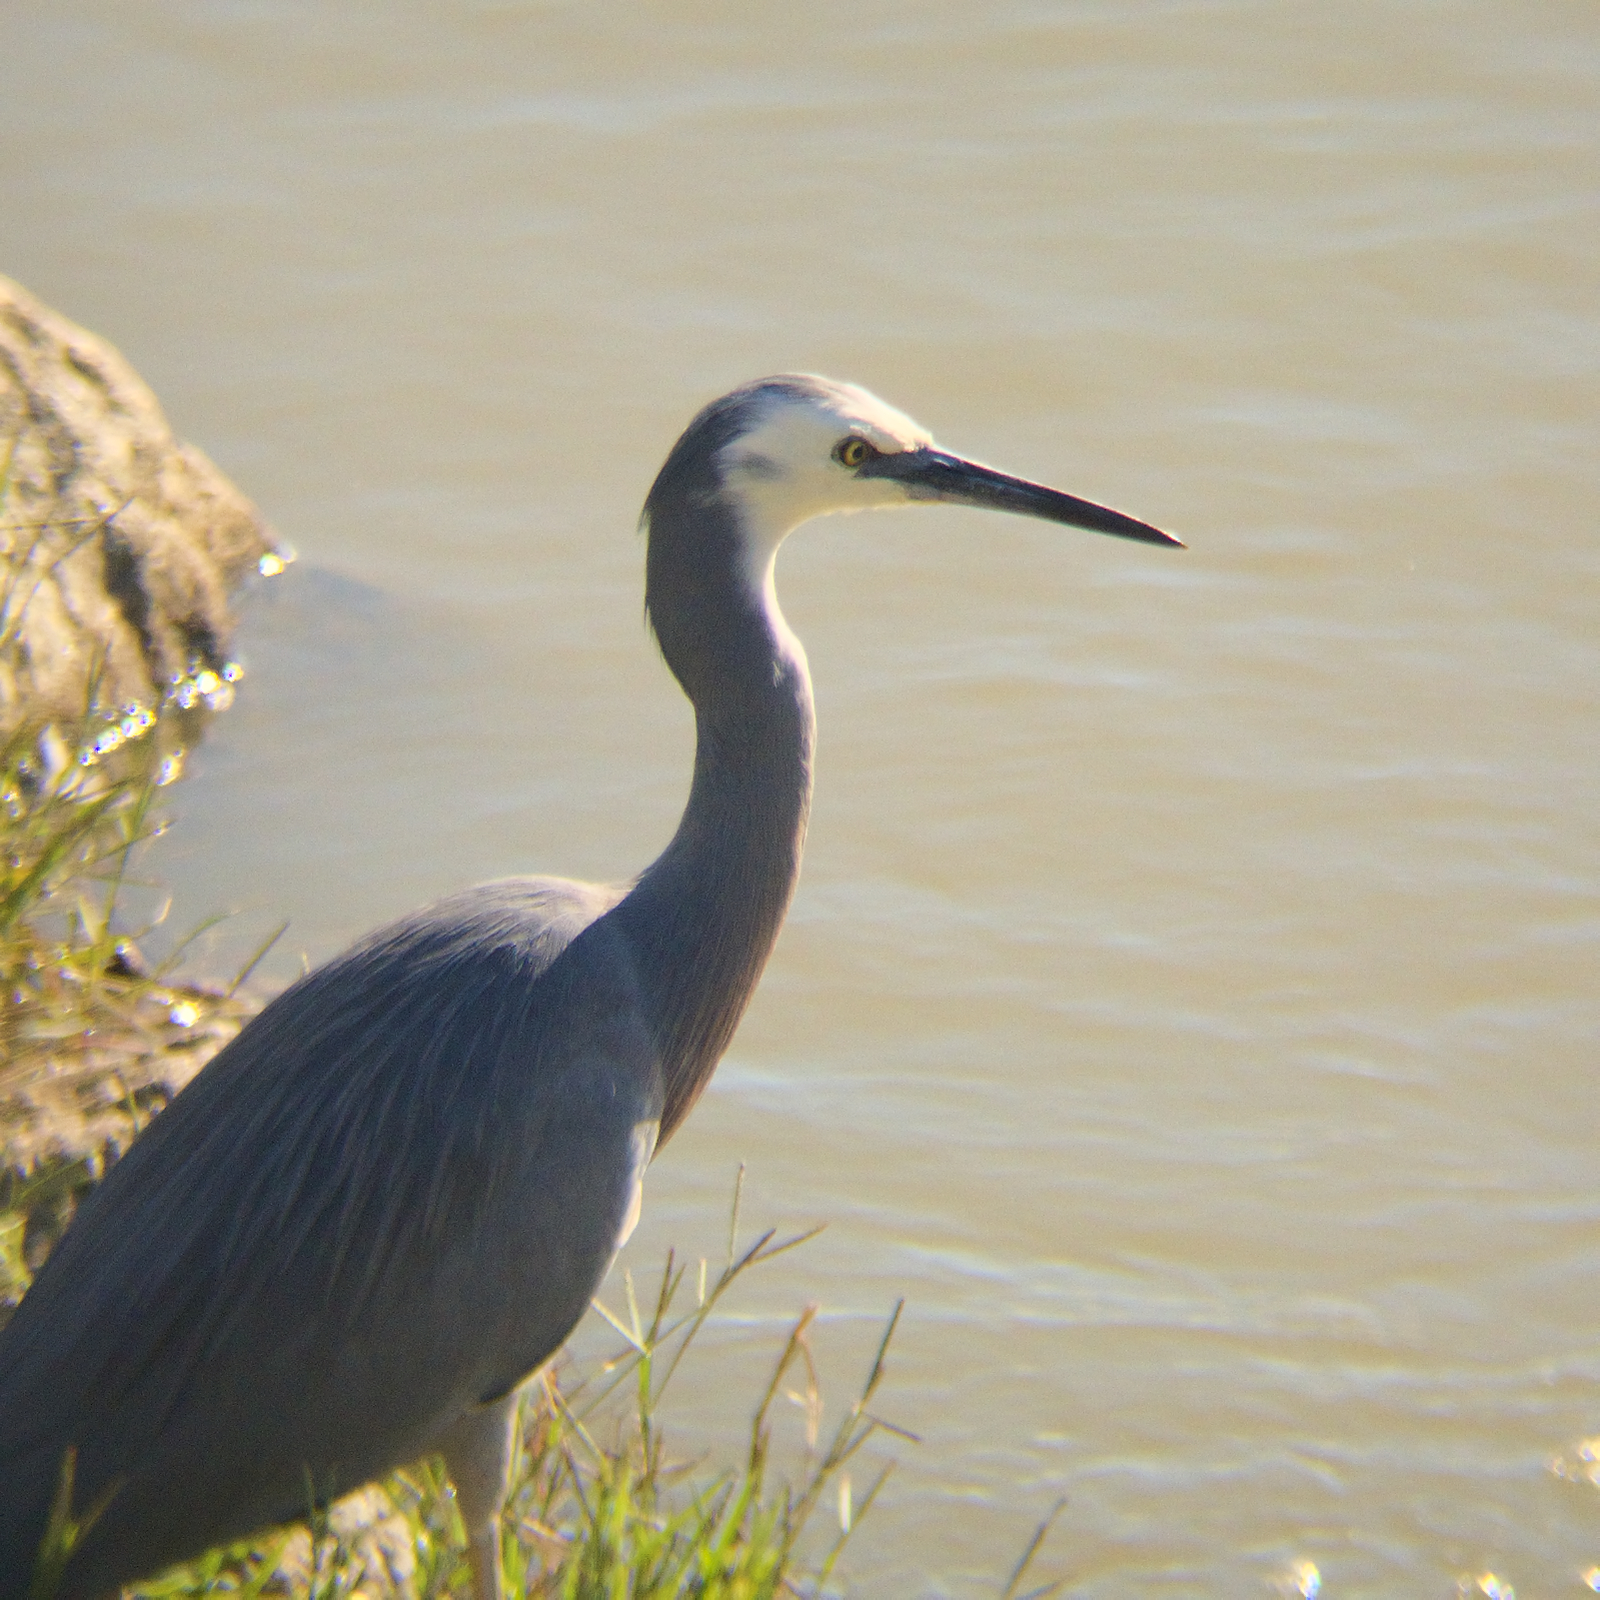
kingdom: Animalia
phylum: Chordata
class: Aves
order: Pelecaniformes
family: Ardeidae
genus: Egretta
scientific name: Egretta novaehollandiae
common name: White-faced heron
